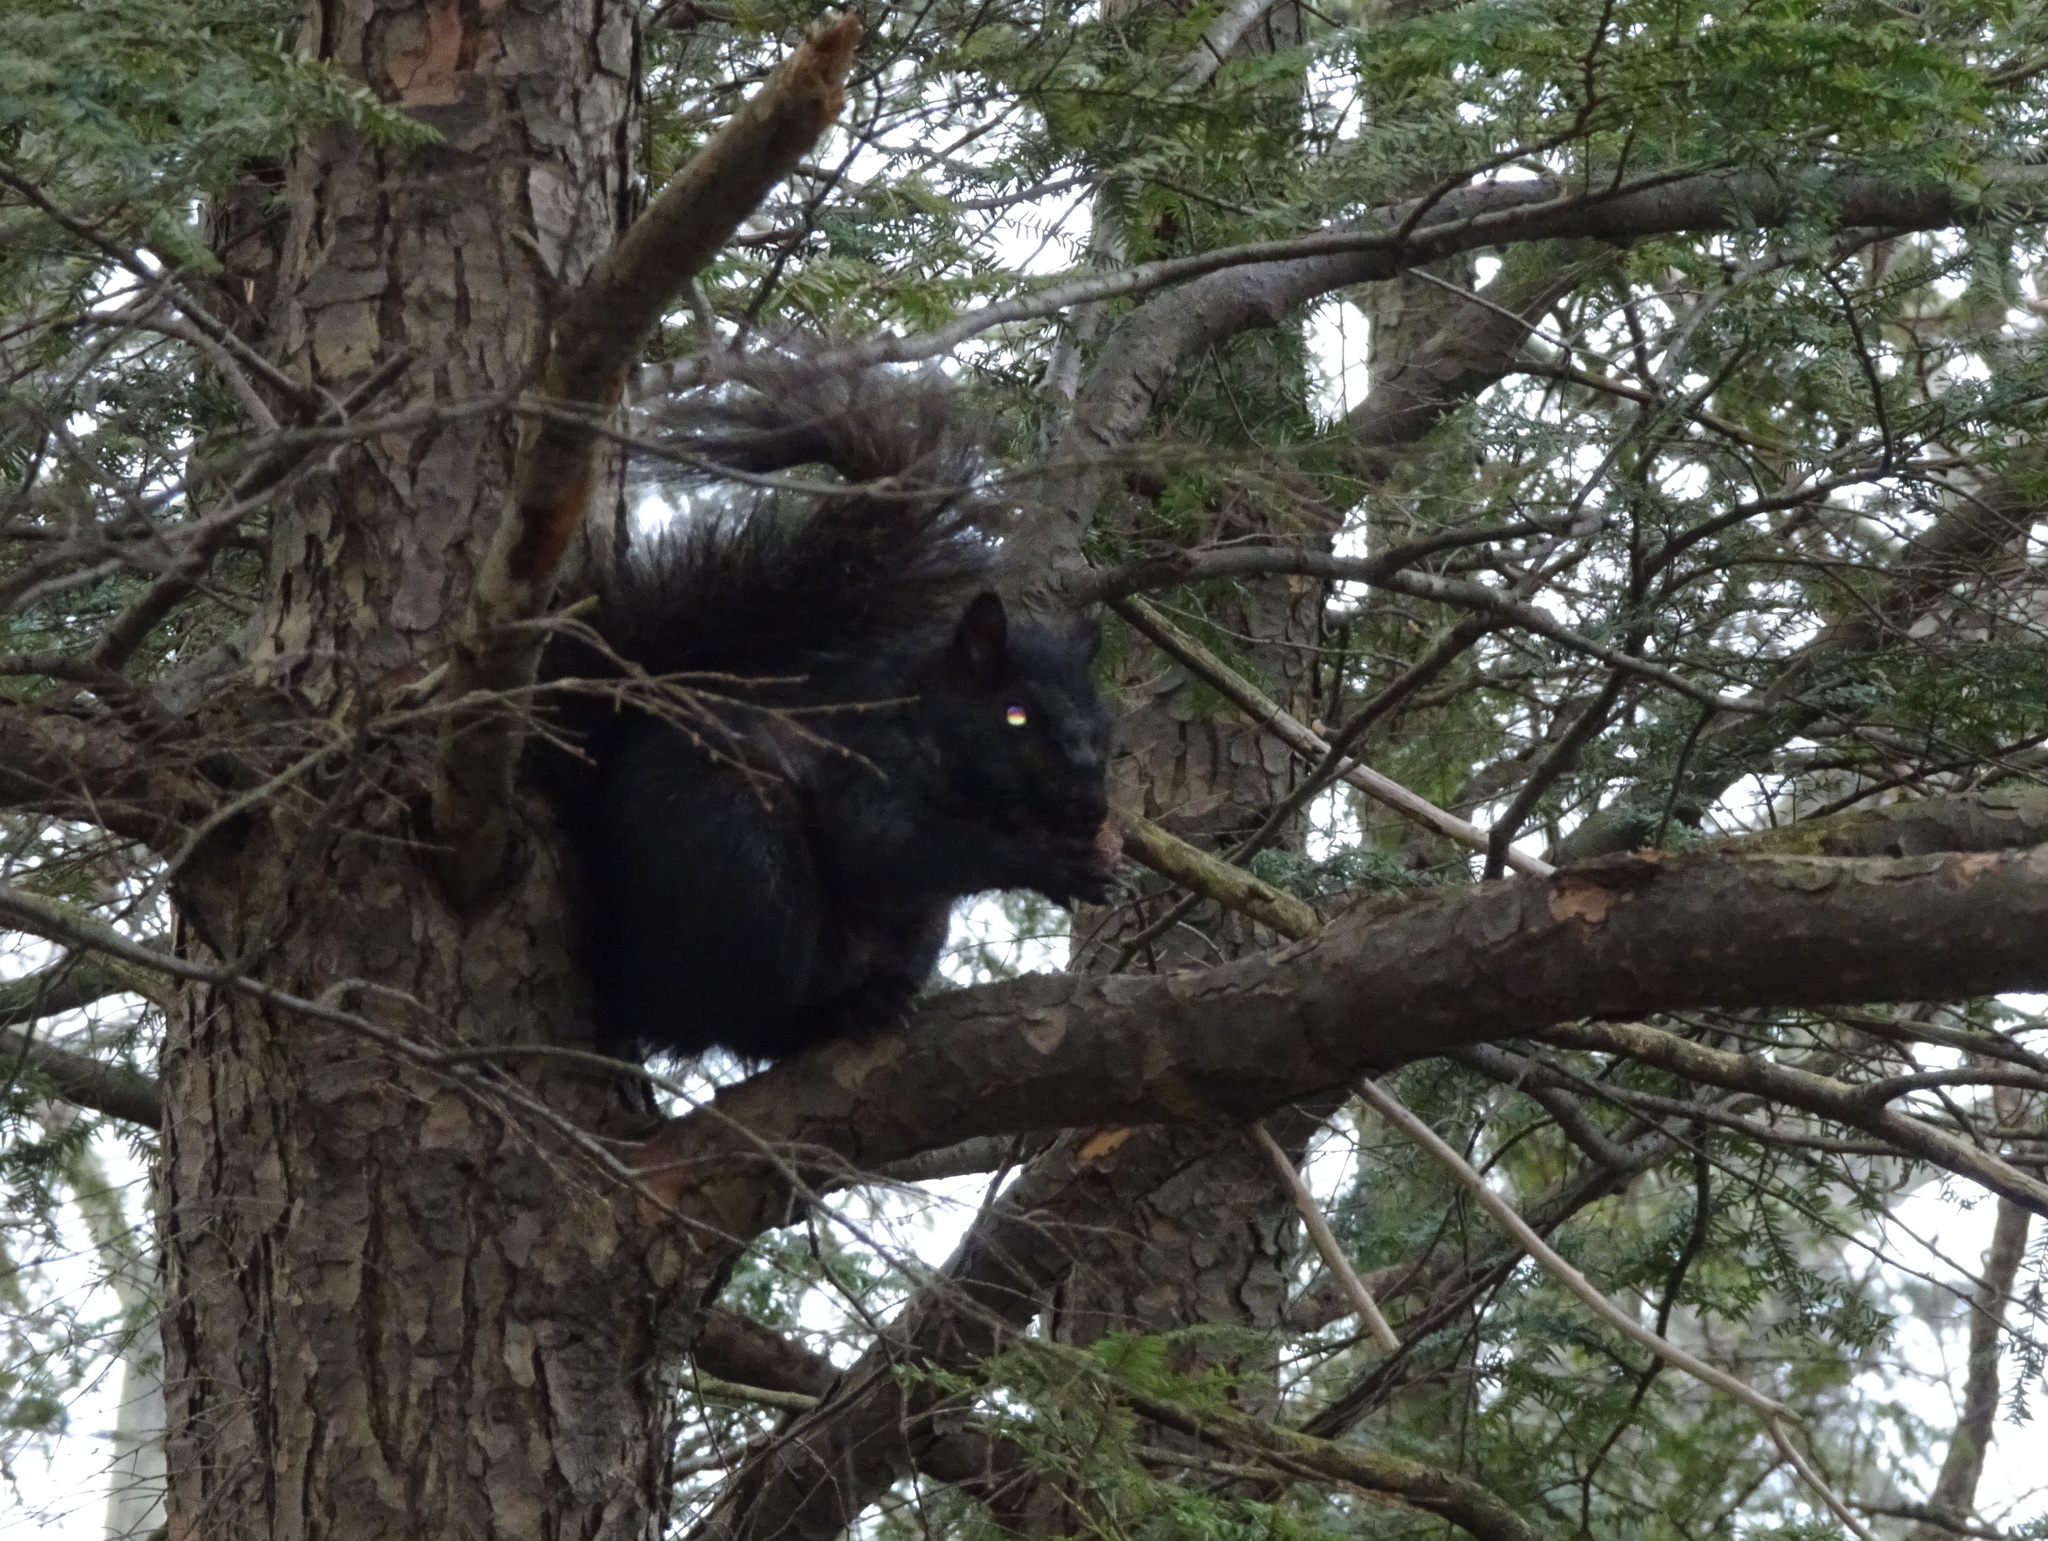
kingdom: Animalia
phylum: Chordata
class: Mammalia
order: Rodentia
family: Sciuridae
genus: Sciurus
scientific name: Sciurus carolinensis
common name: Eastern gray squirrel
